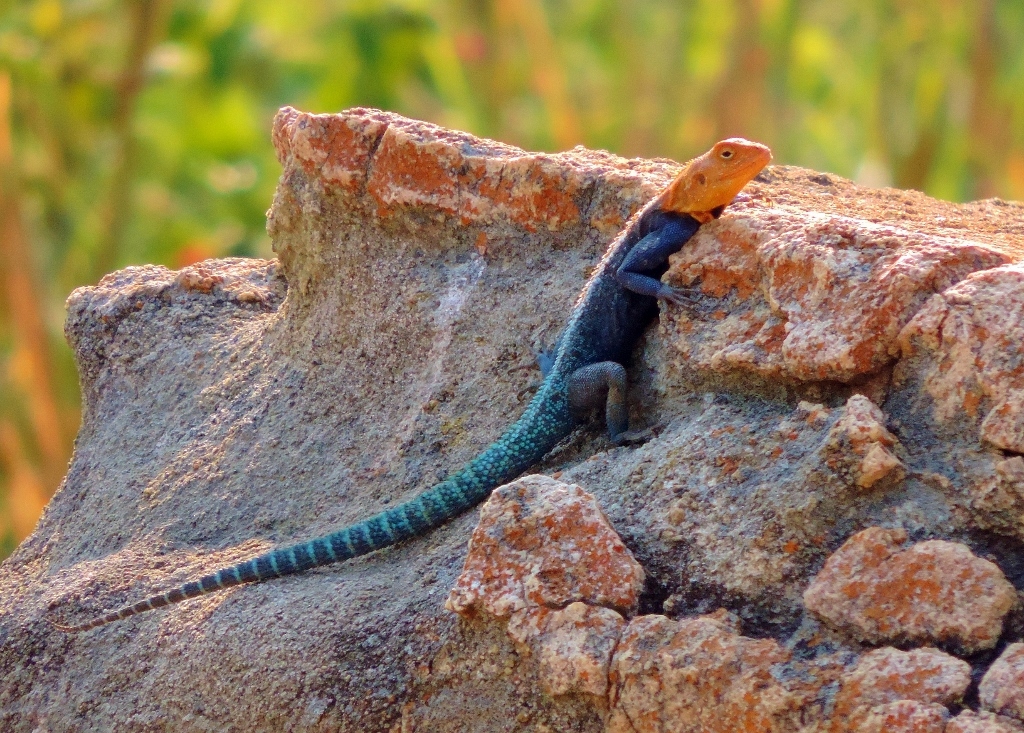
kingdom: Animalia
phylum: Chordata
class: Squamata
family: Agamidae
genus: Agama
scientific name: Agama kirkii
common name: Kirk's rock agama
